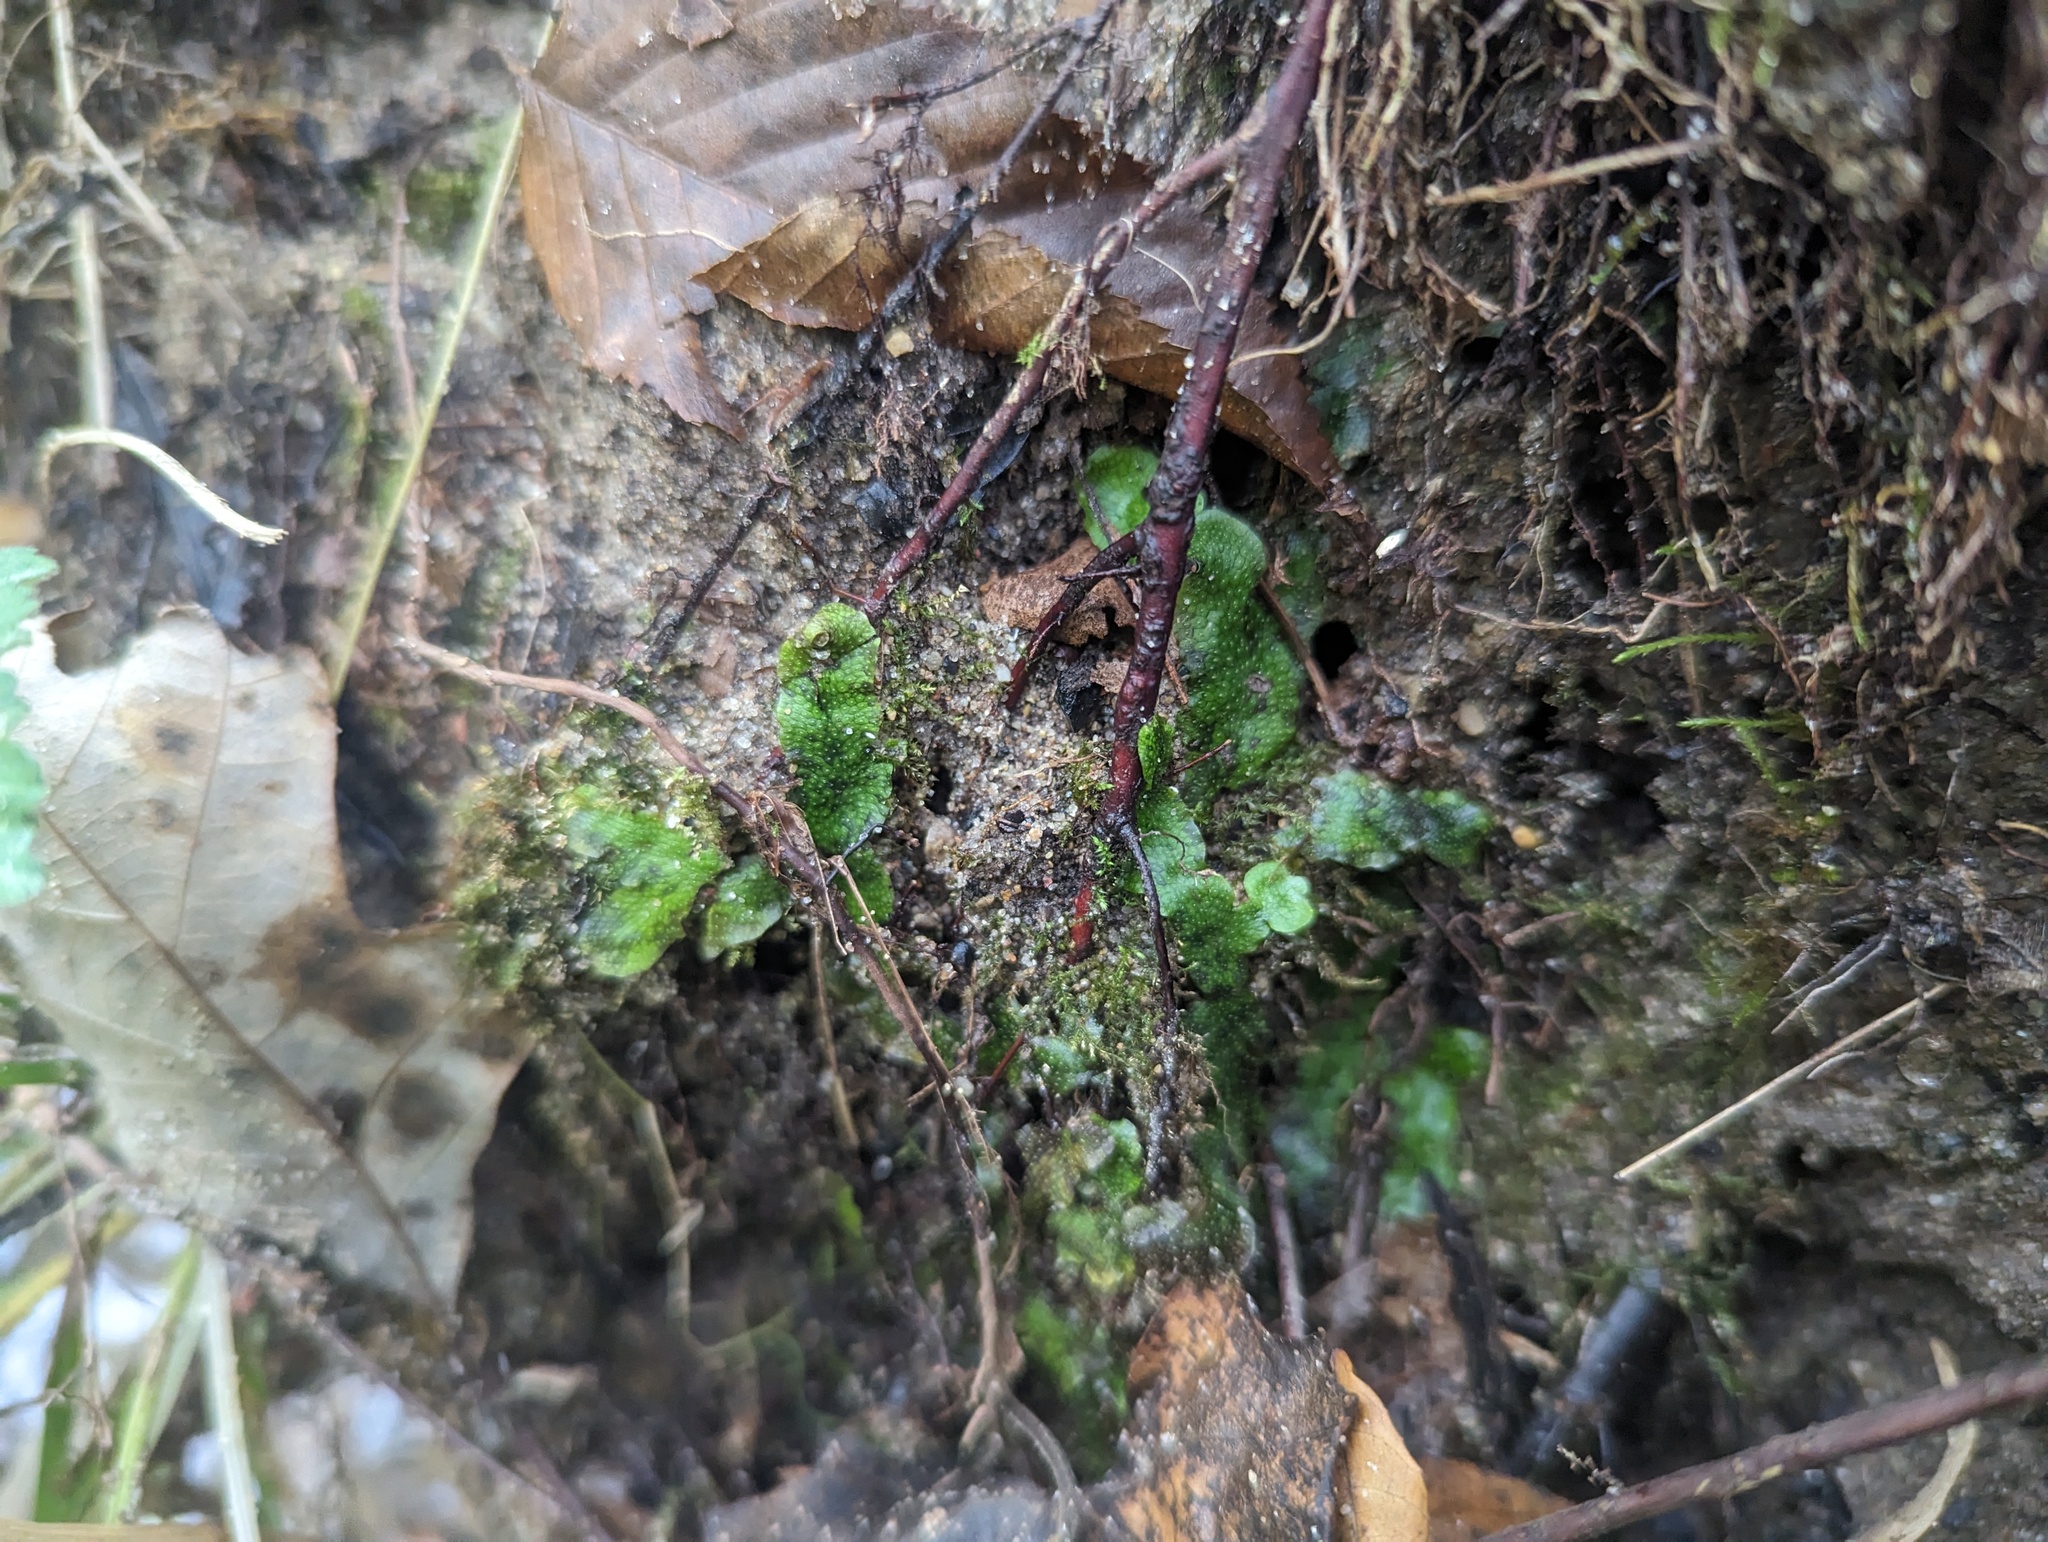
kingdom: Plantae
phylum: Marchantiophyta
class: Marchantiopsida
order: Marchantiales
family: Conocephalaceae
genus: Conocephalum
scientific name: Conocephalum salebrosum
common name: Cat-tongue liverwort
